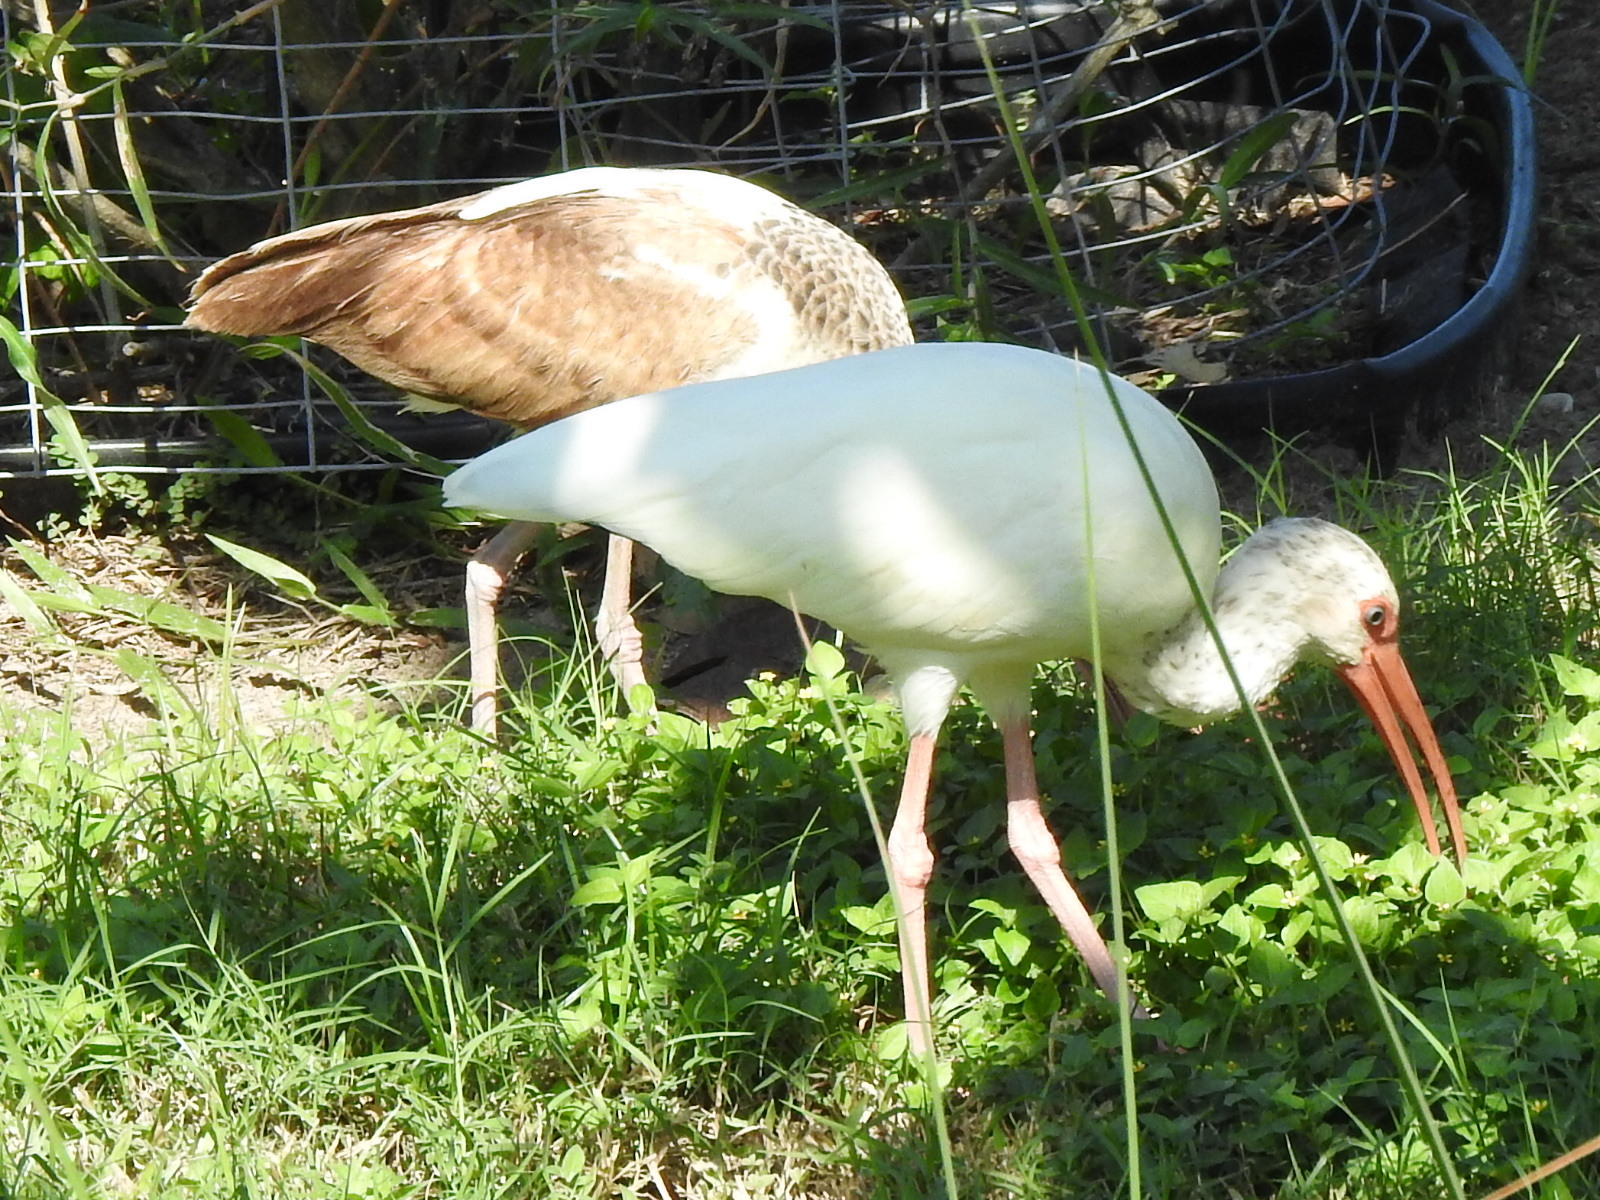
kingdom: Animalia
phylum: Chordata
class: Aves
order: Pelecaniformes
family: Threskiornithidae
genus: Eudocimus
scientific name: Eudocimus albus
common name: White ibis
